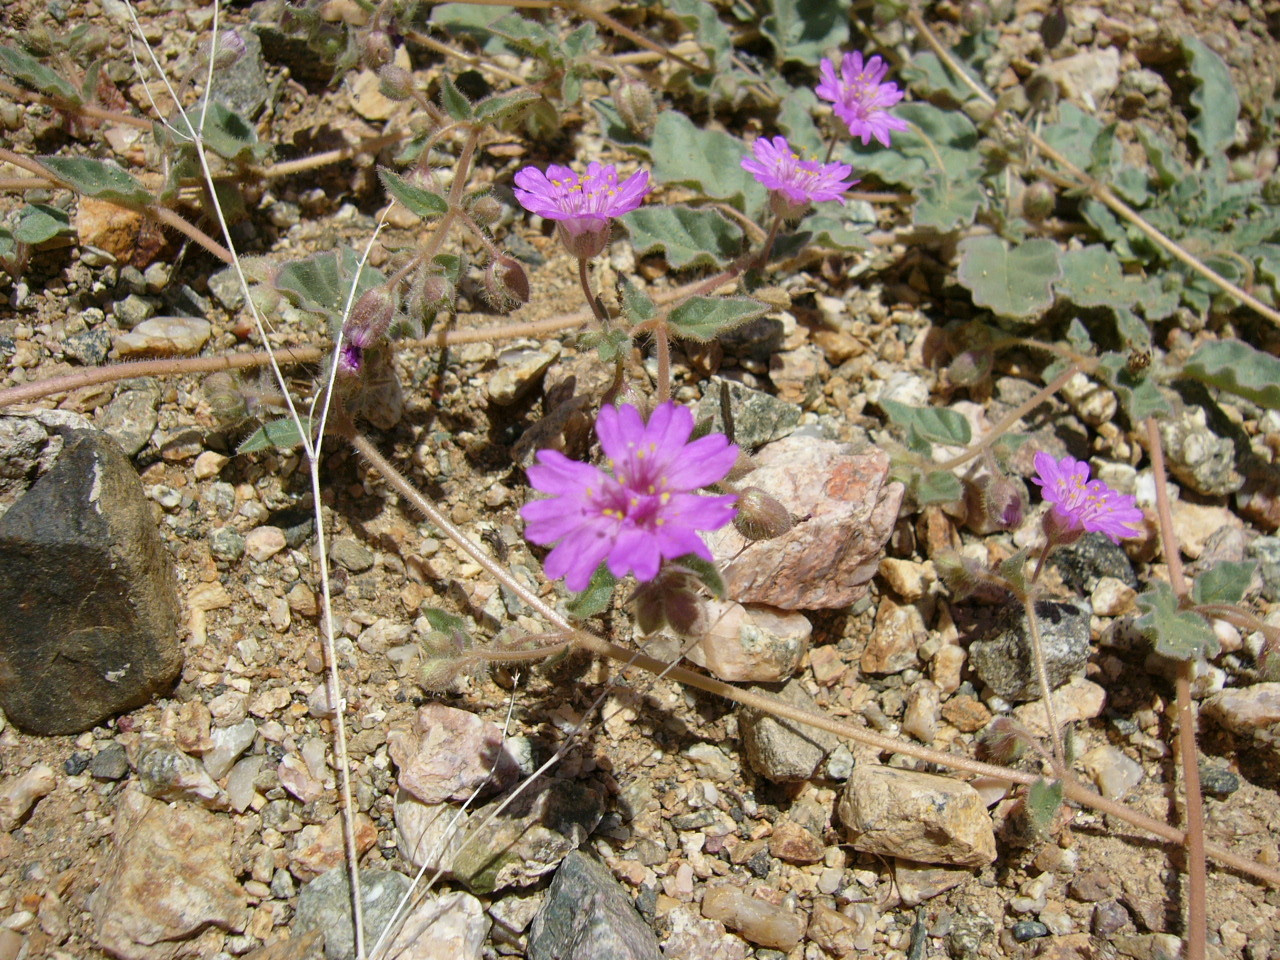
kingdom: Plantae
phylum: Tracheophyta
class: Magnoliopsida
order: Caryophyllales
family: Nyctaginaceae
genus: Allionia
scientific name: Allionia incarnata
